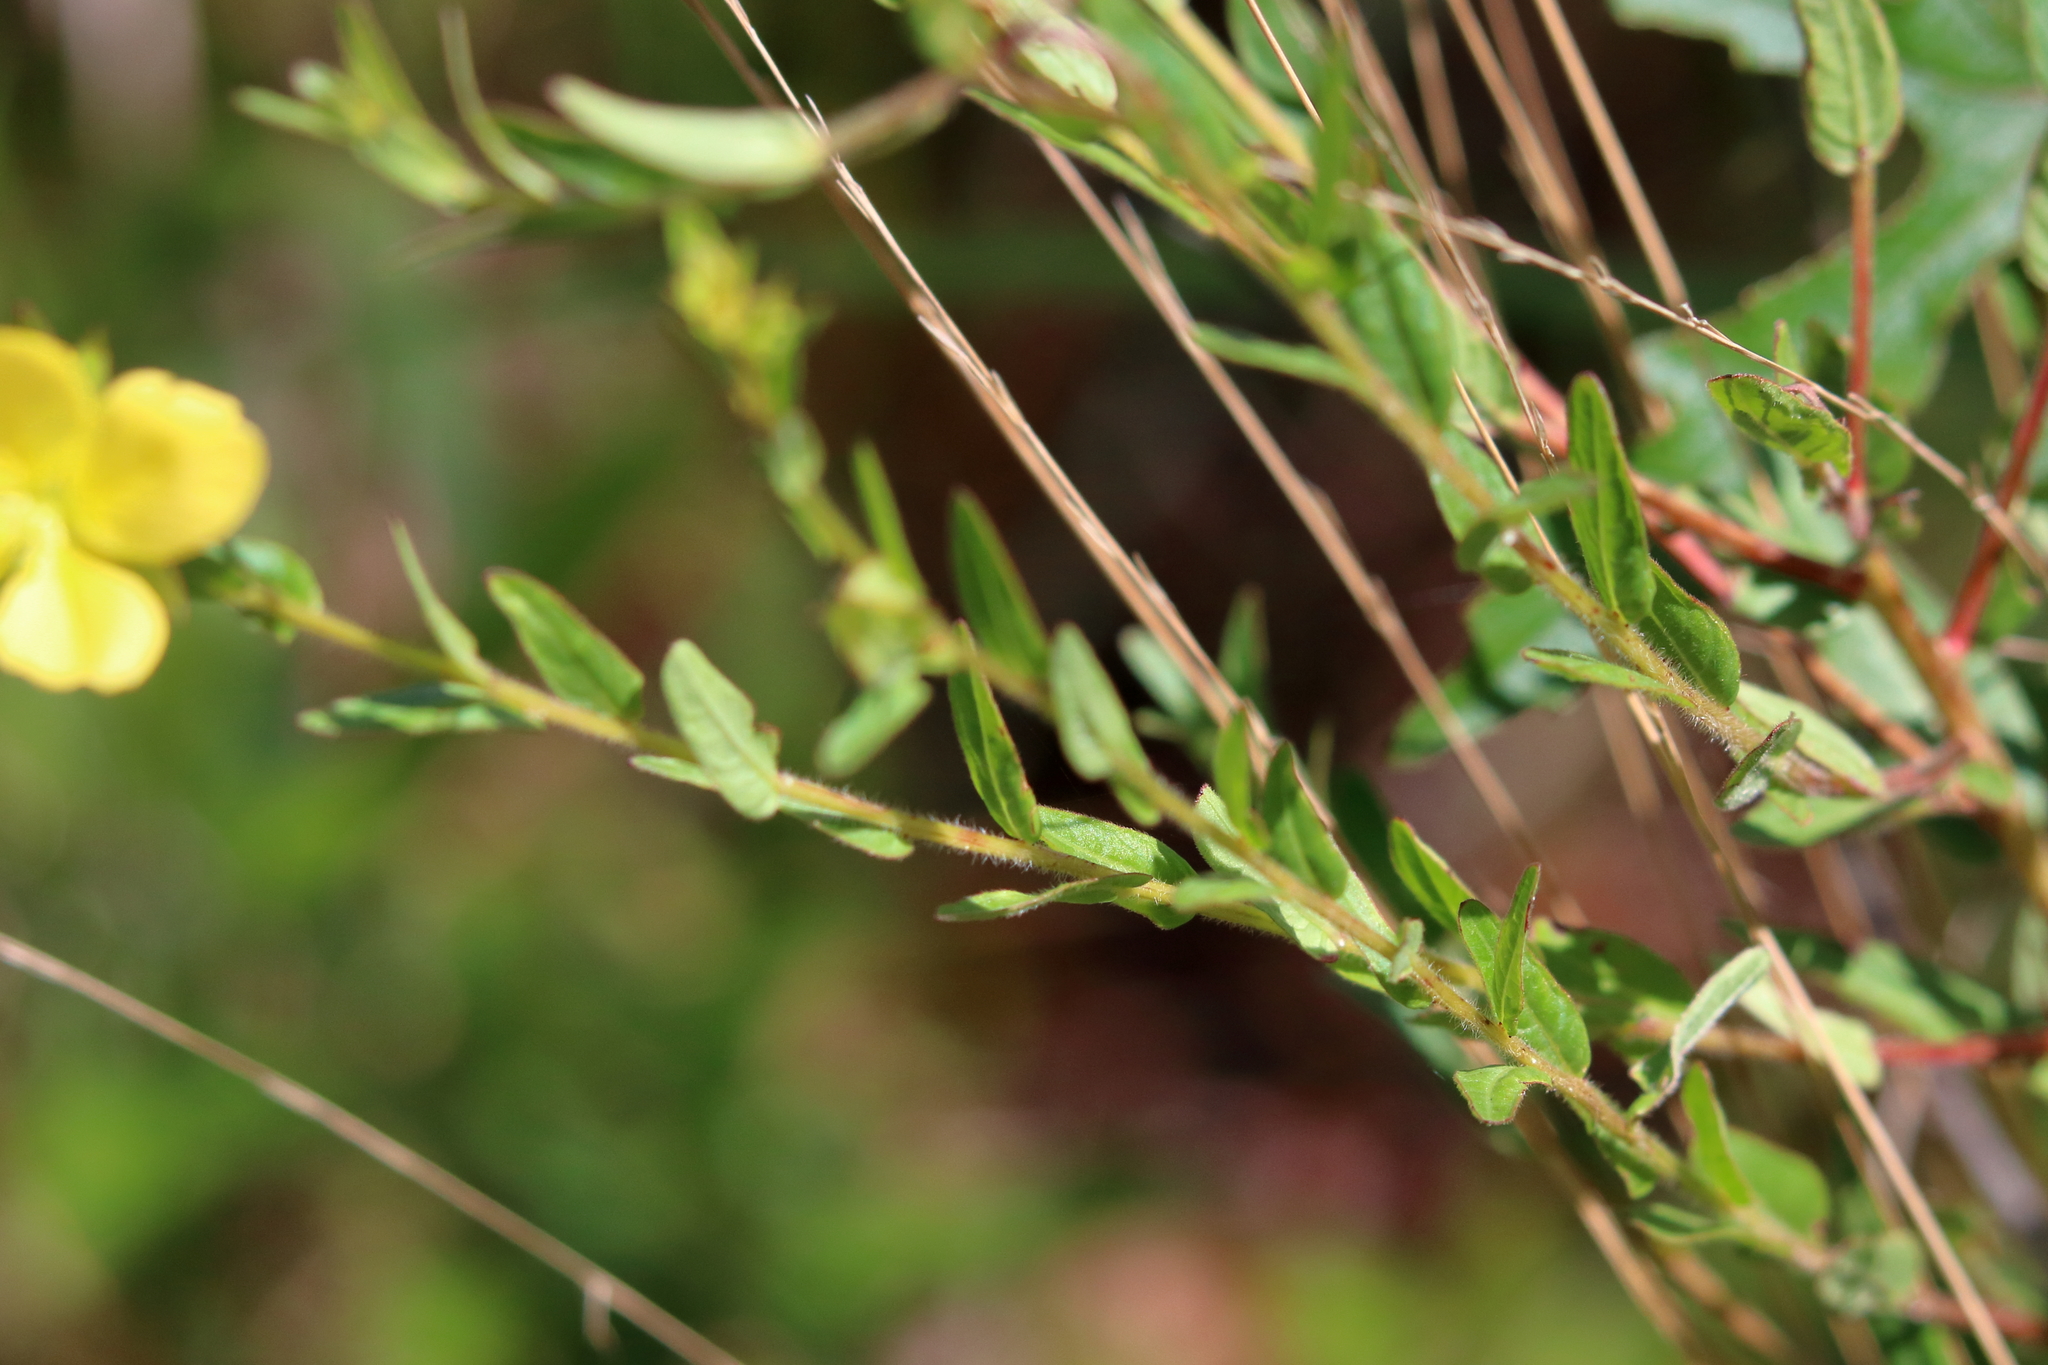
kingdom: Plantae
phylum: Tracheophyta
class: Magnoliopsida
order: Myrtales
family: Onagraceae
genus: Ludwigia
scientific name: Ludwigia maritima
